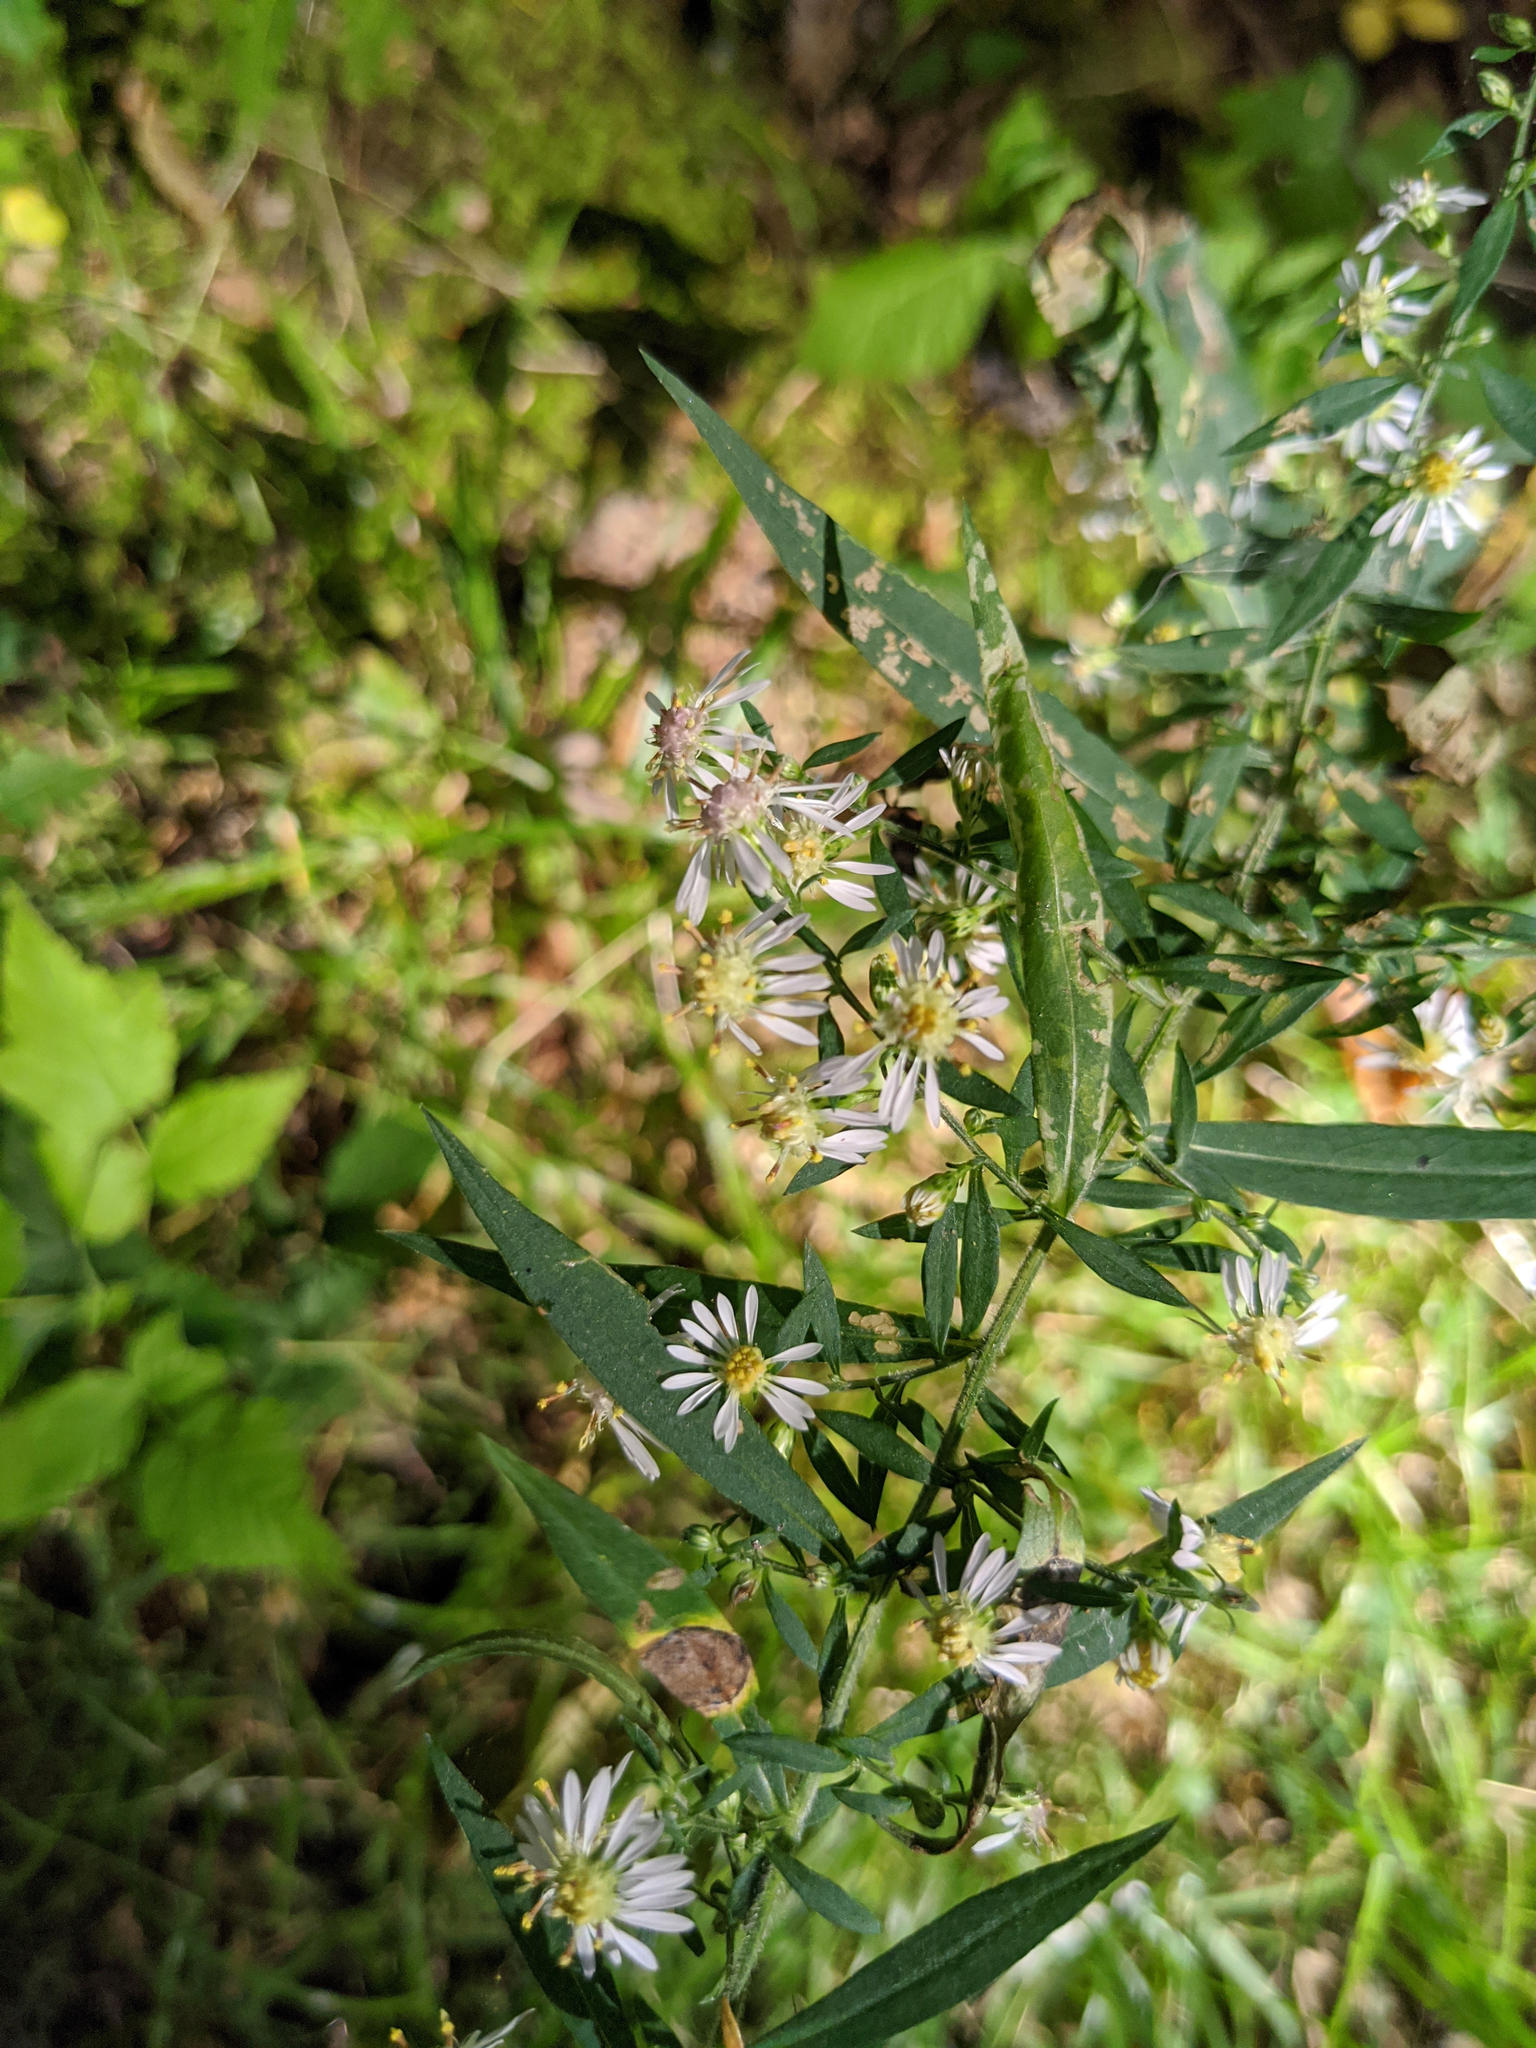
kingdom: Plantae
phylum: Tracheophyta
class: Magnoliopsida
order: Asterales
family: Asteraceae
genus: Symphyotrichum
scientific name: Symphyotrichum lateriflorum
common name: Calico aster
